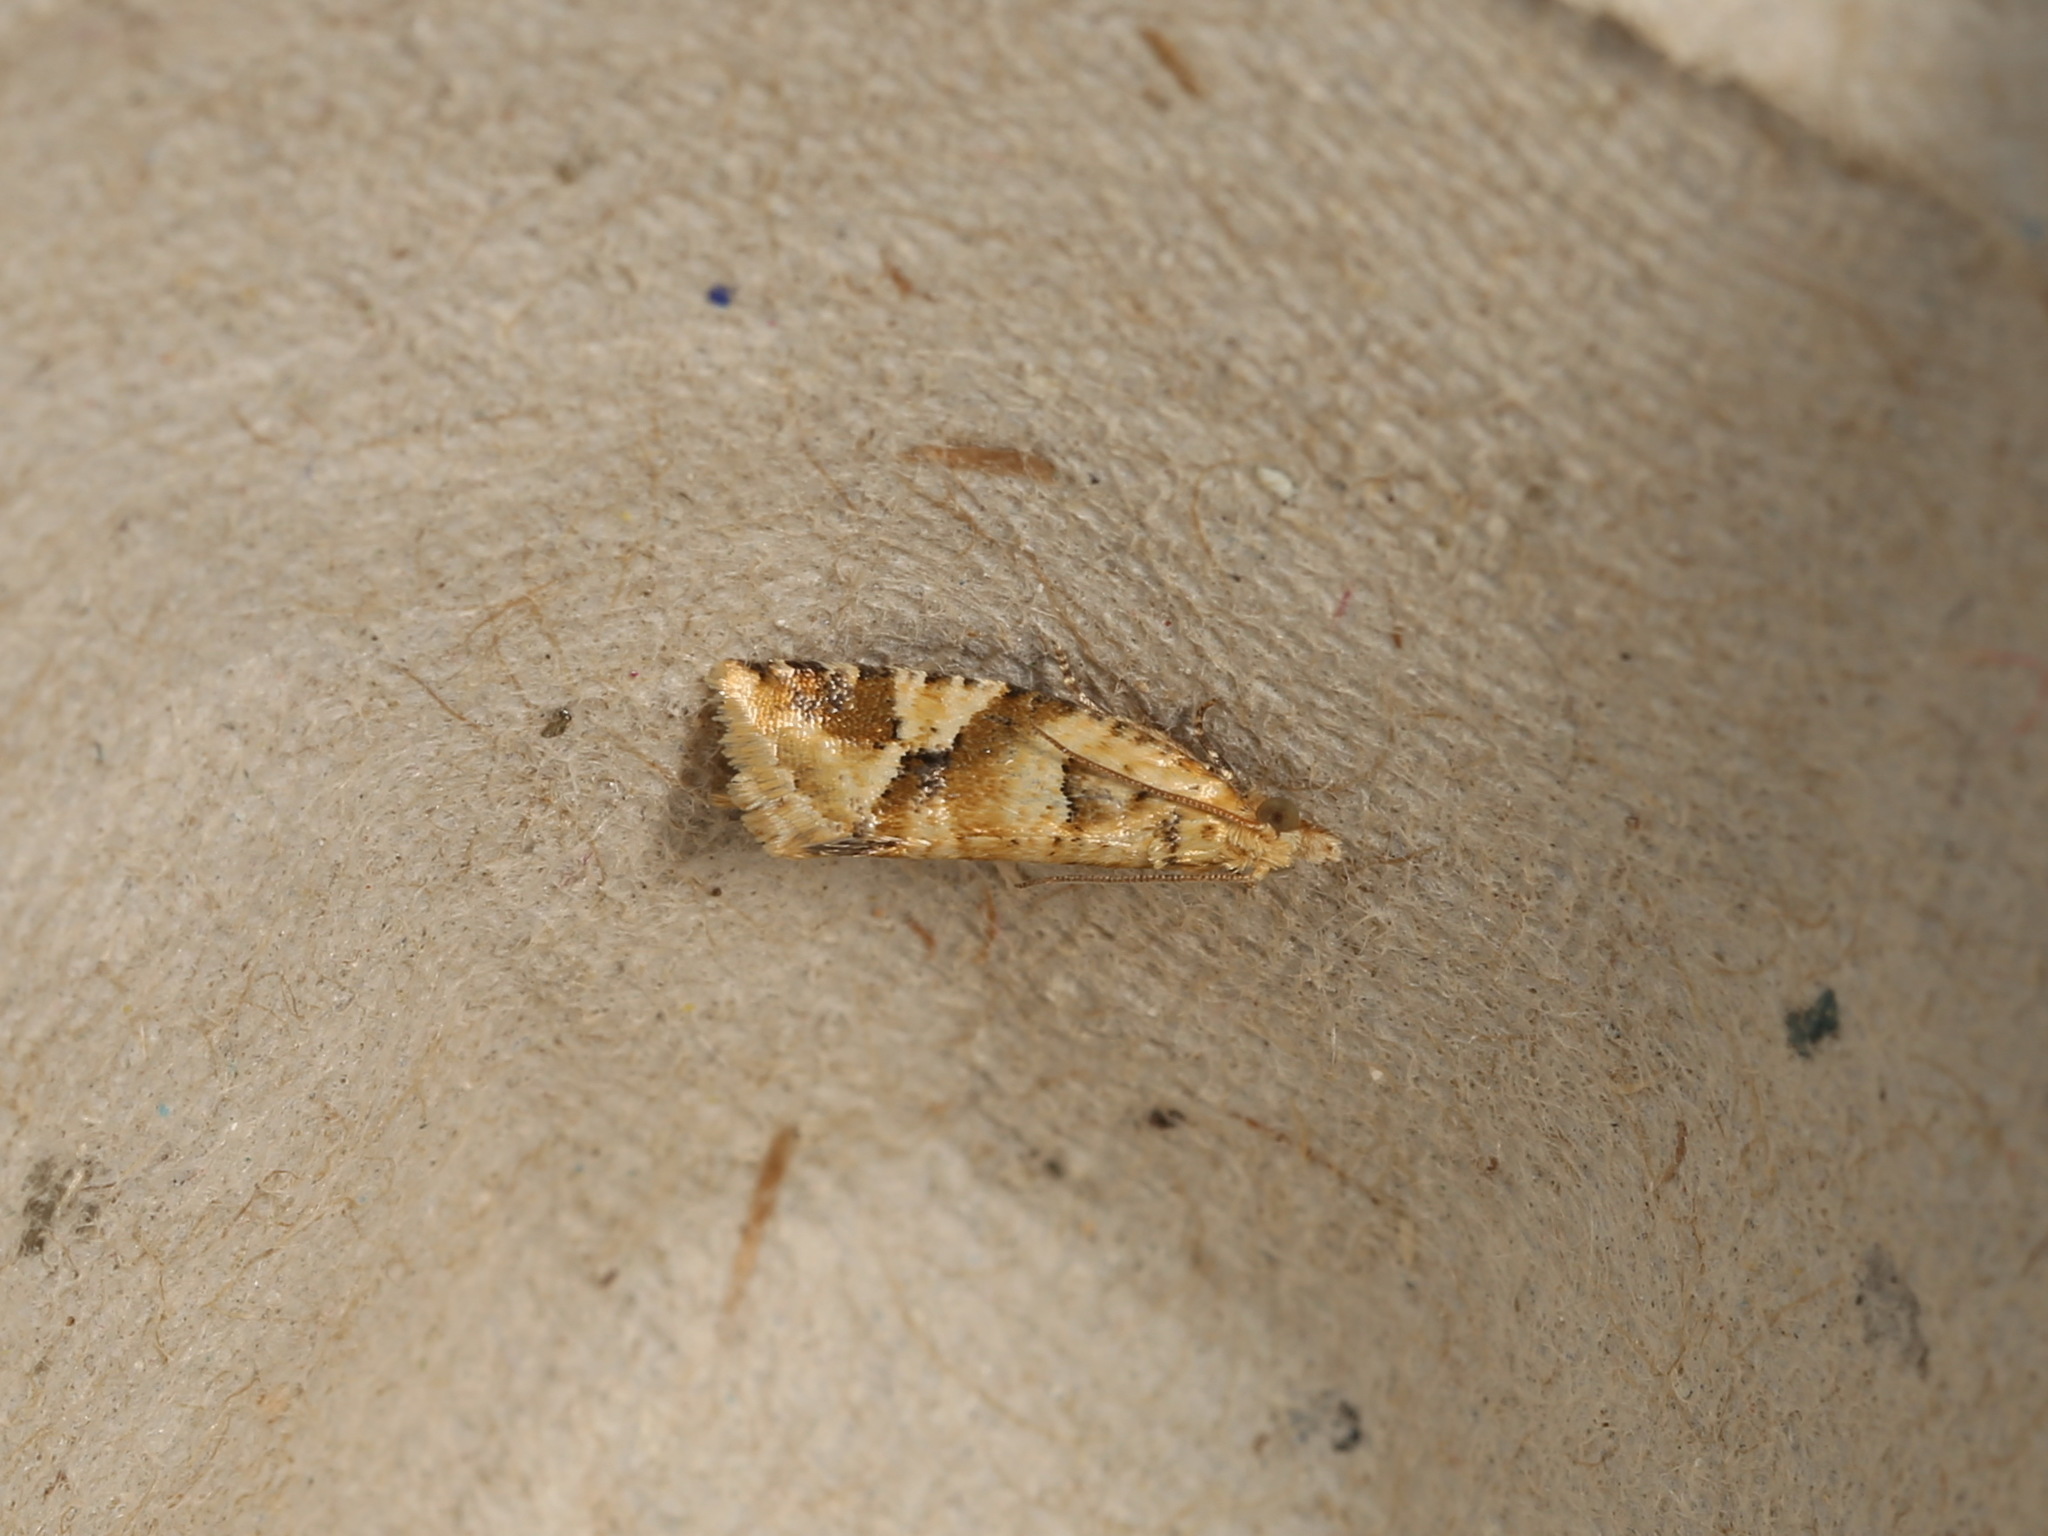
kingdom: Animalia
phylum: Arthropoda
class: Insecta
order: Lepidoptera
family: Tortricidae
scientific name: Tortricidae
